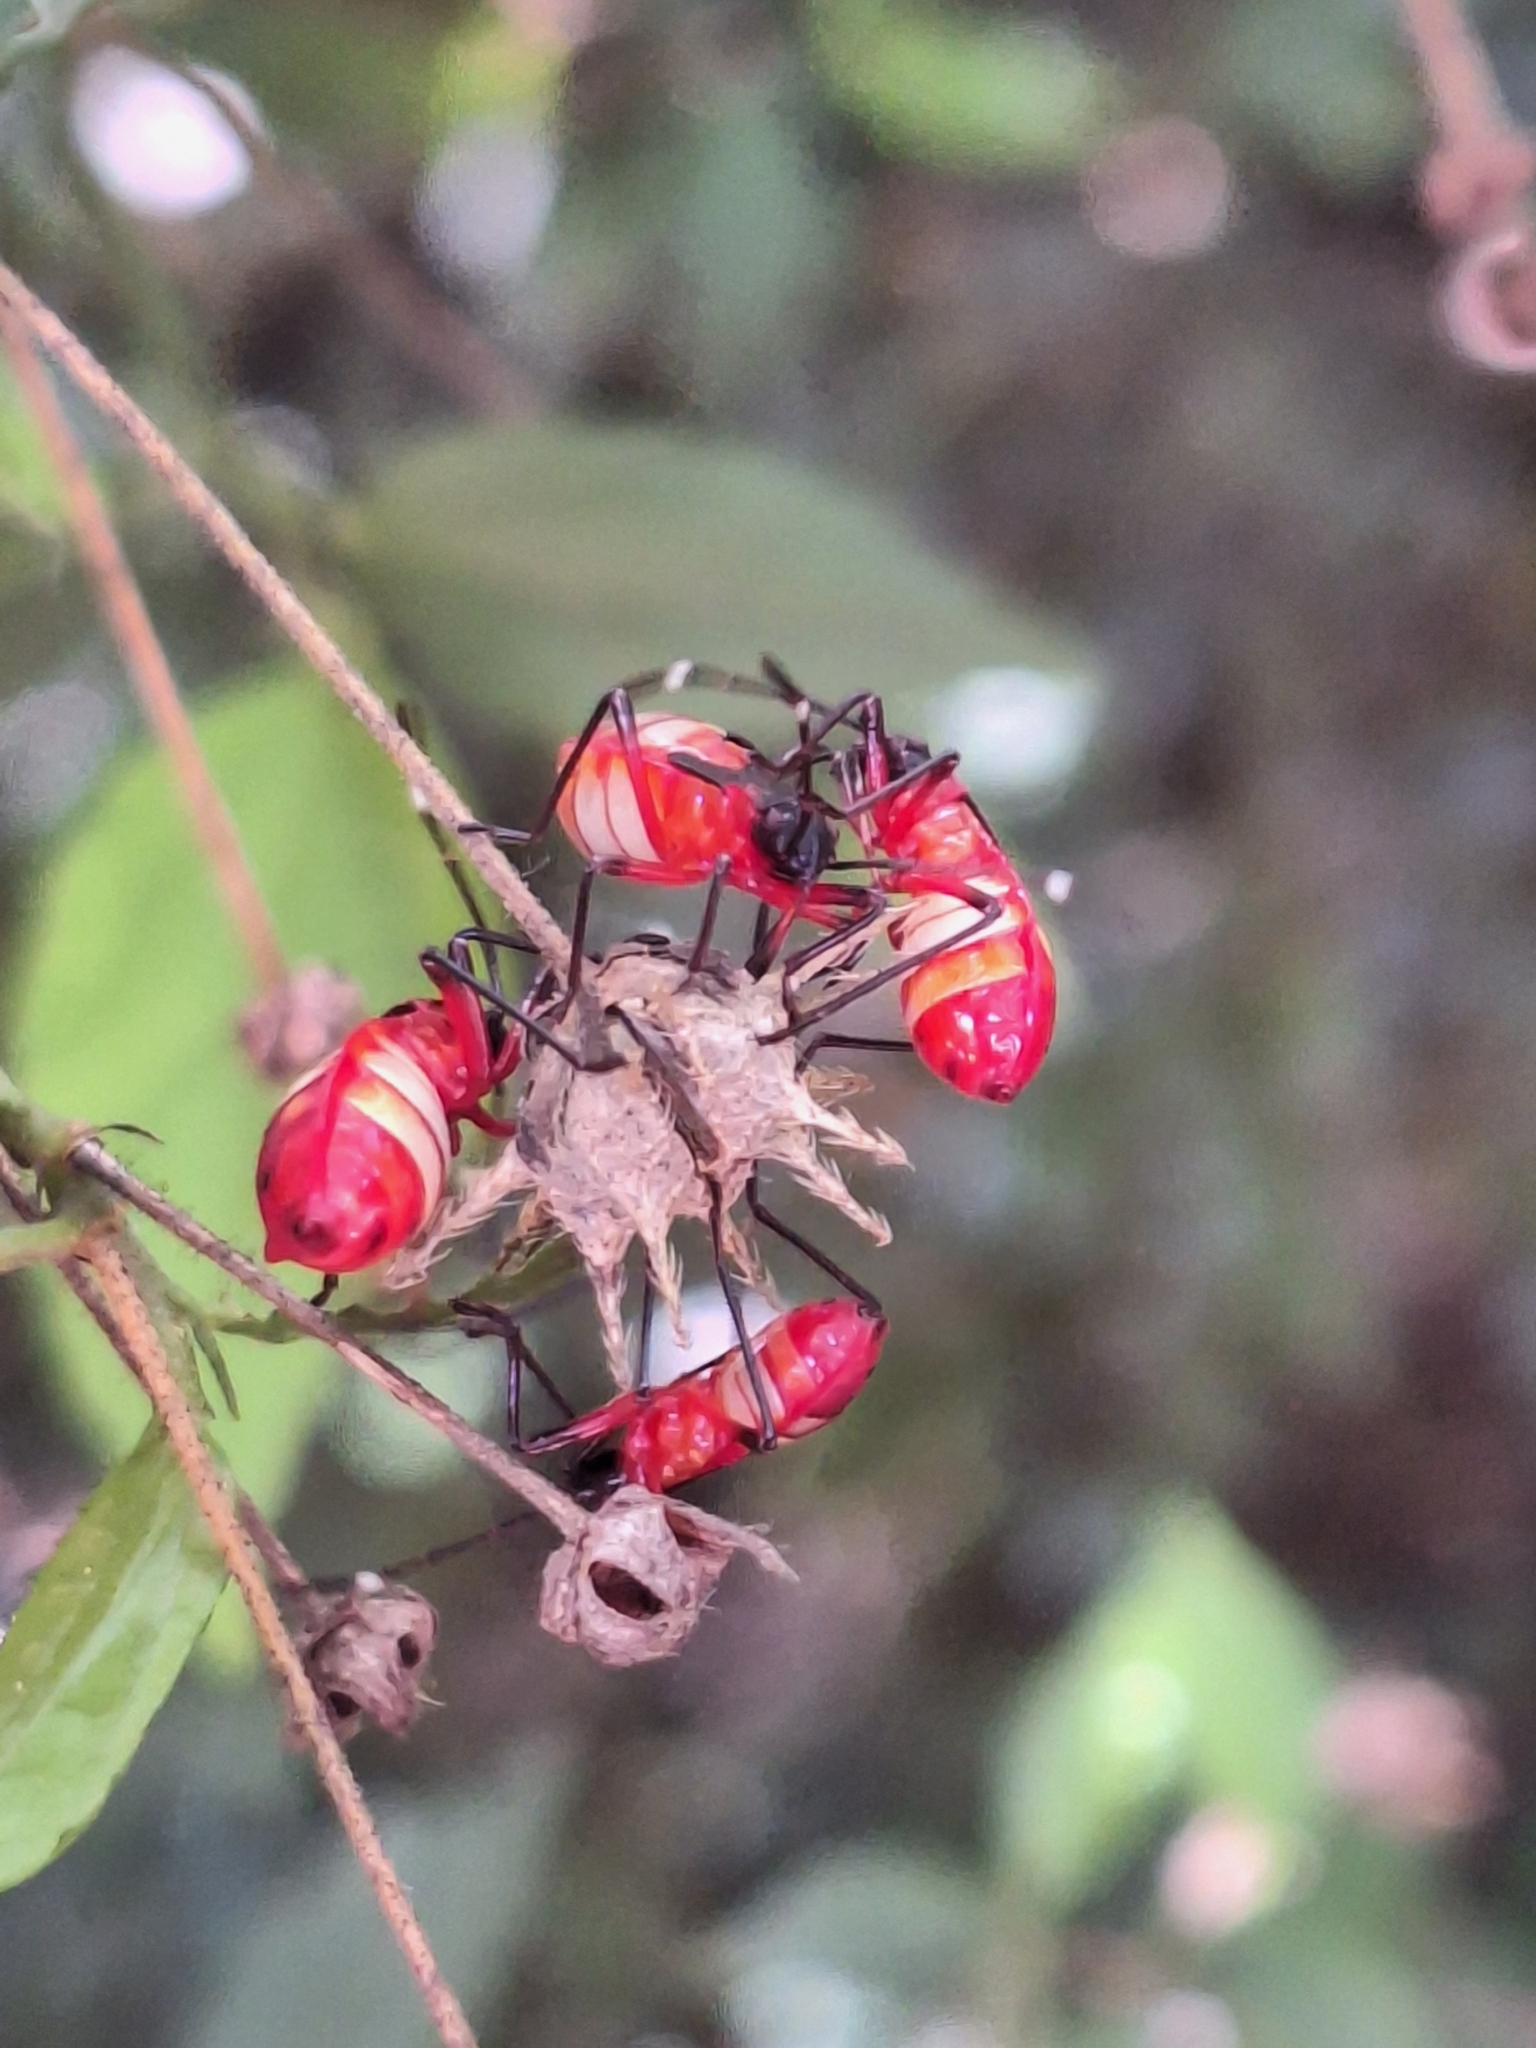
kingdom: Animalia
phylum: Arthropoda
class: Insecta
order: Hemiptera
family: Pyrrhocoridae
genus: Dysdercus
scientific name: Dysdercus albofasciatus
